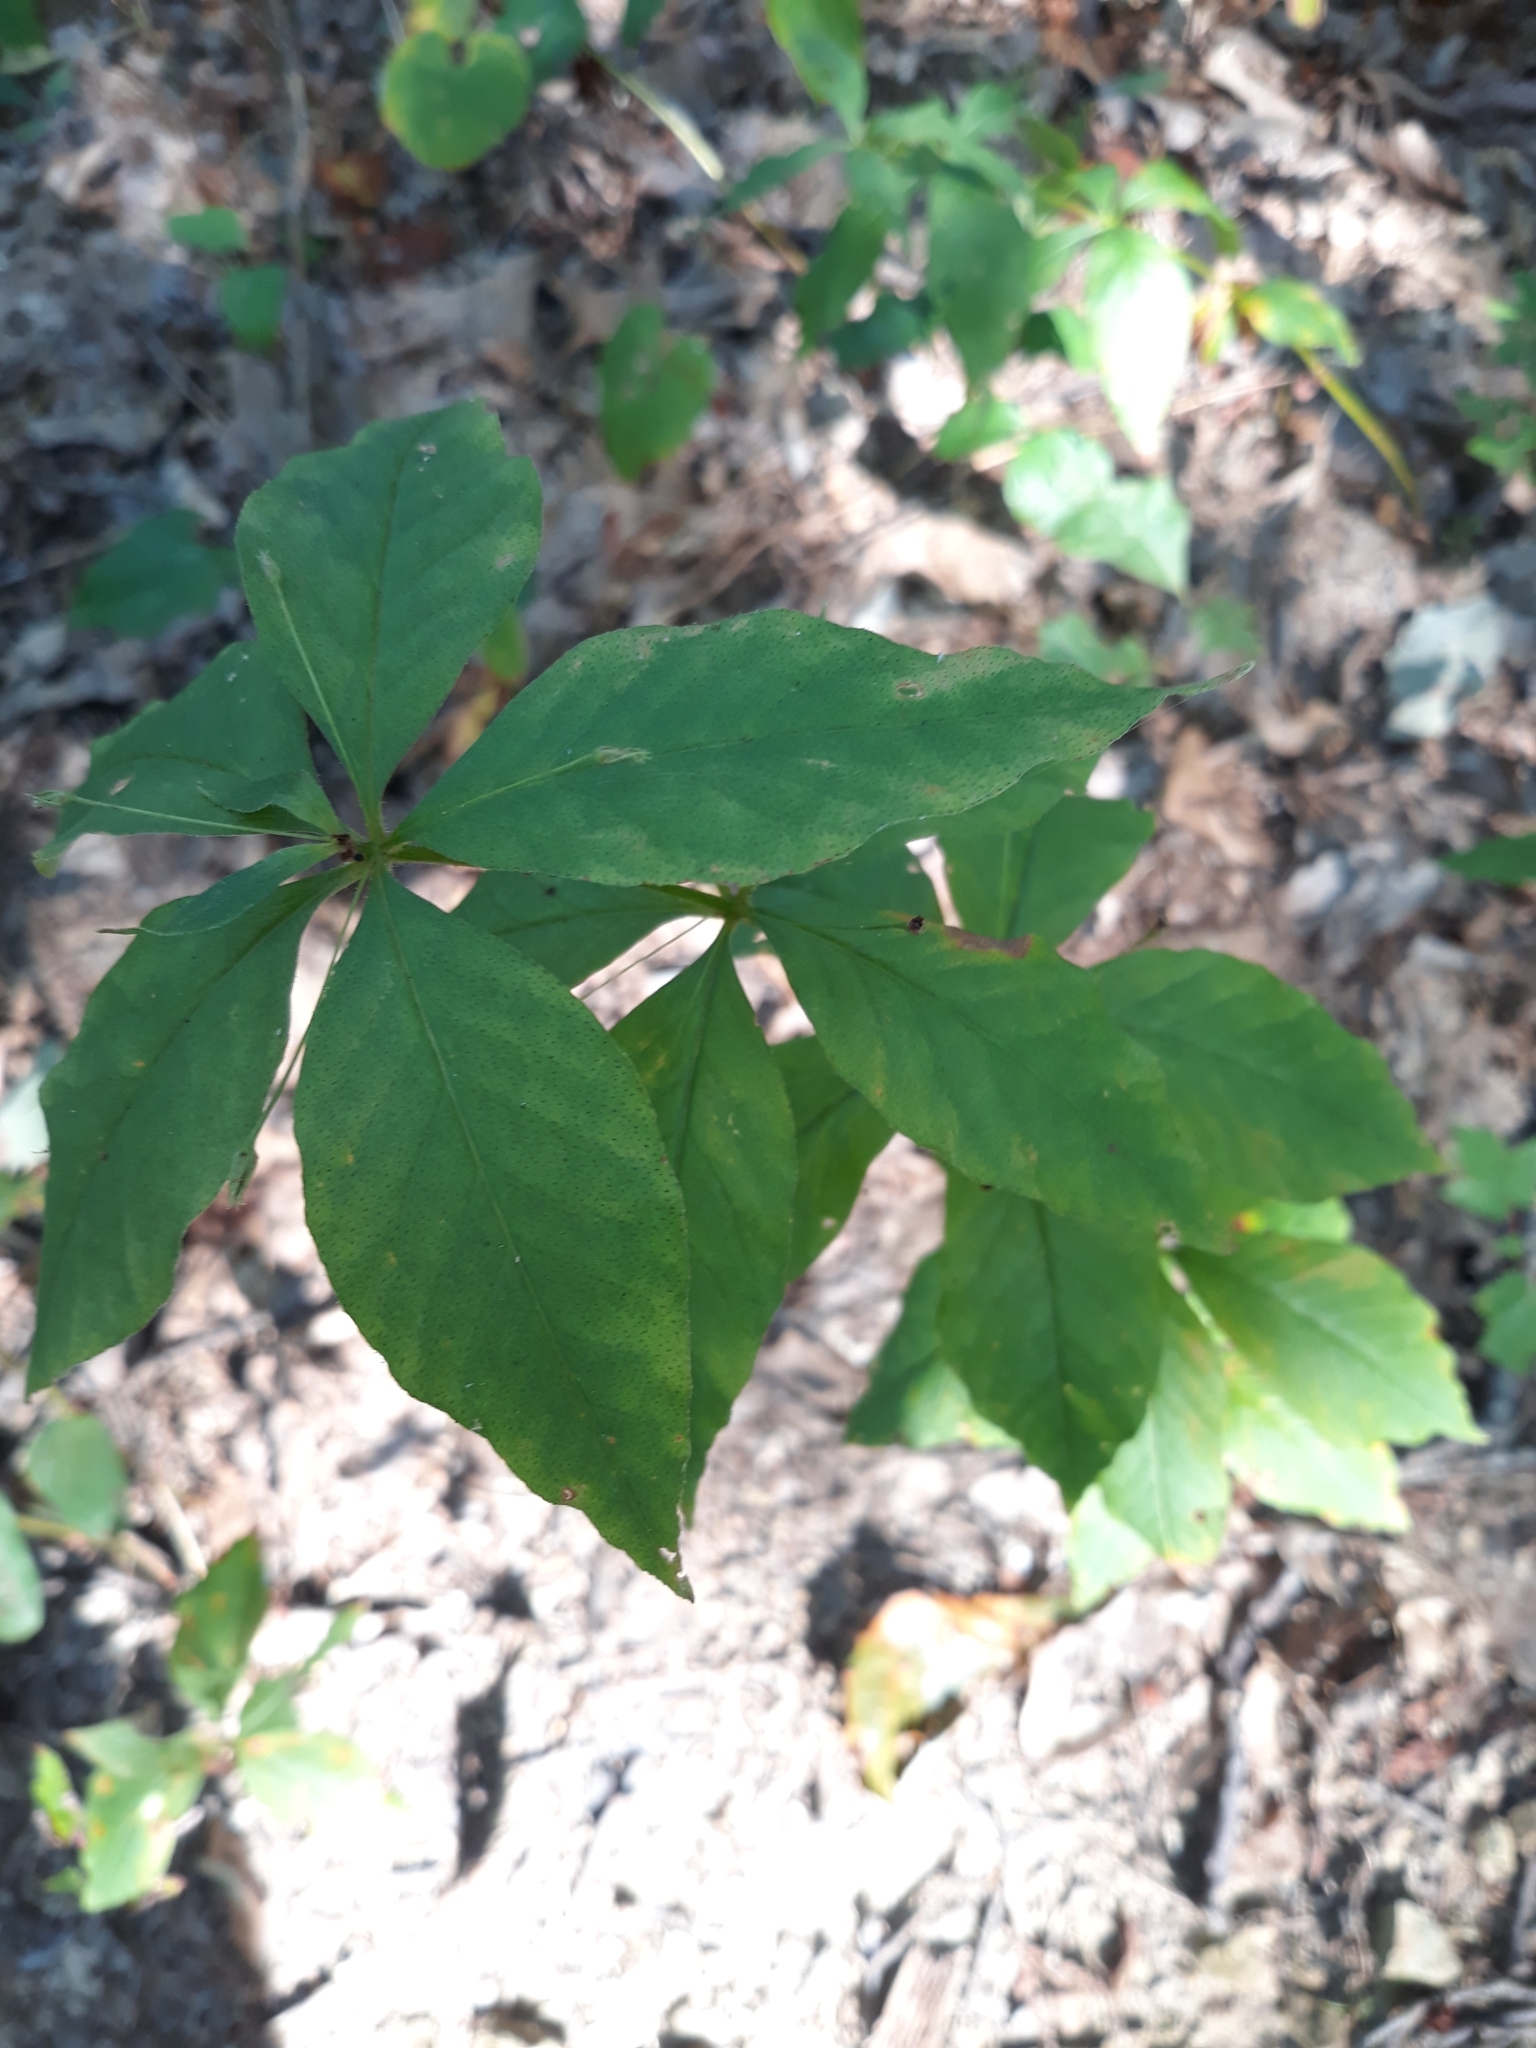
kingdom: Plantae
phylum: Tracheophyta
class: Magnoliopsida
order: Ericales
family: Primulaceae
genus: Lysimachia
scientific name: Lysimachia quadrifolia
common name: Whorled loosestrife
